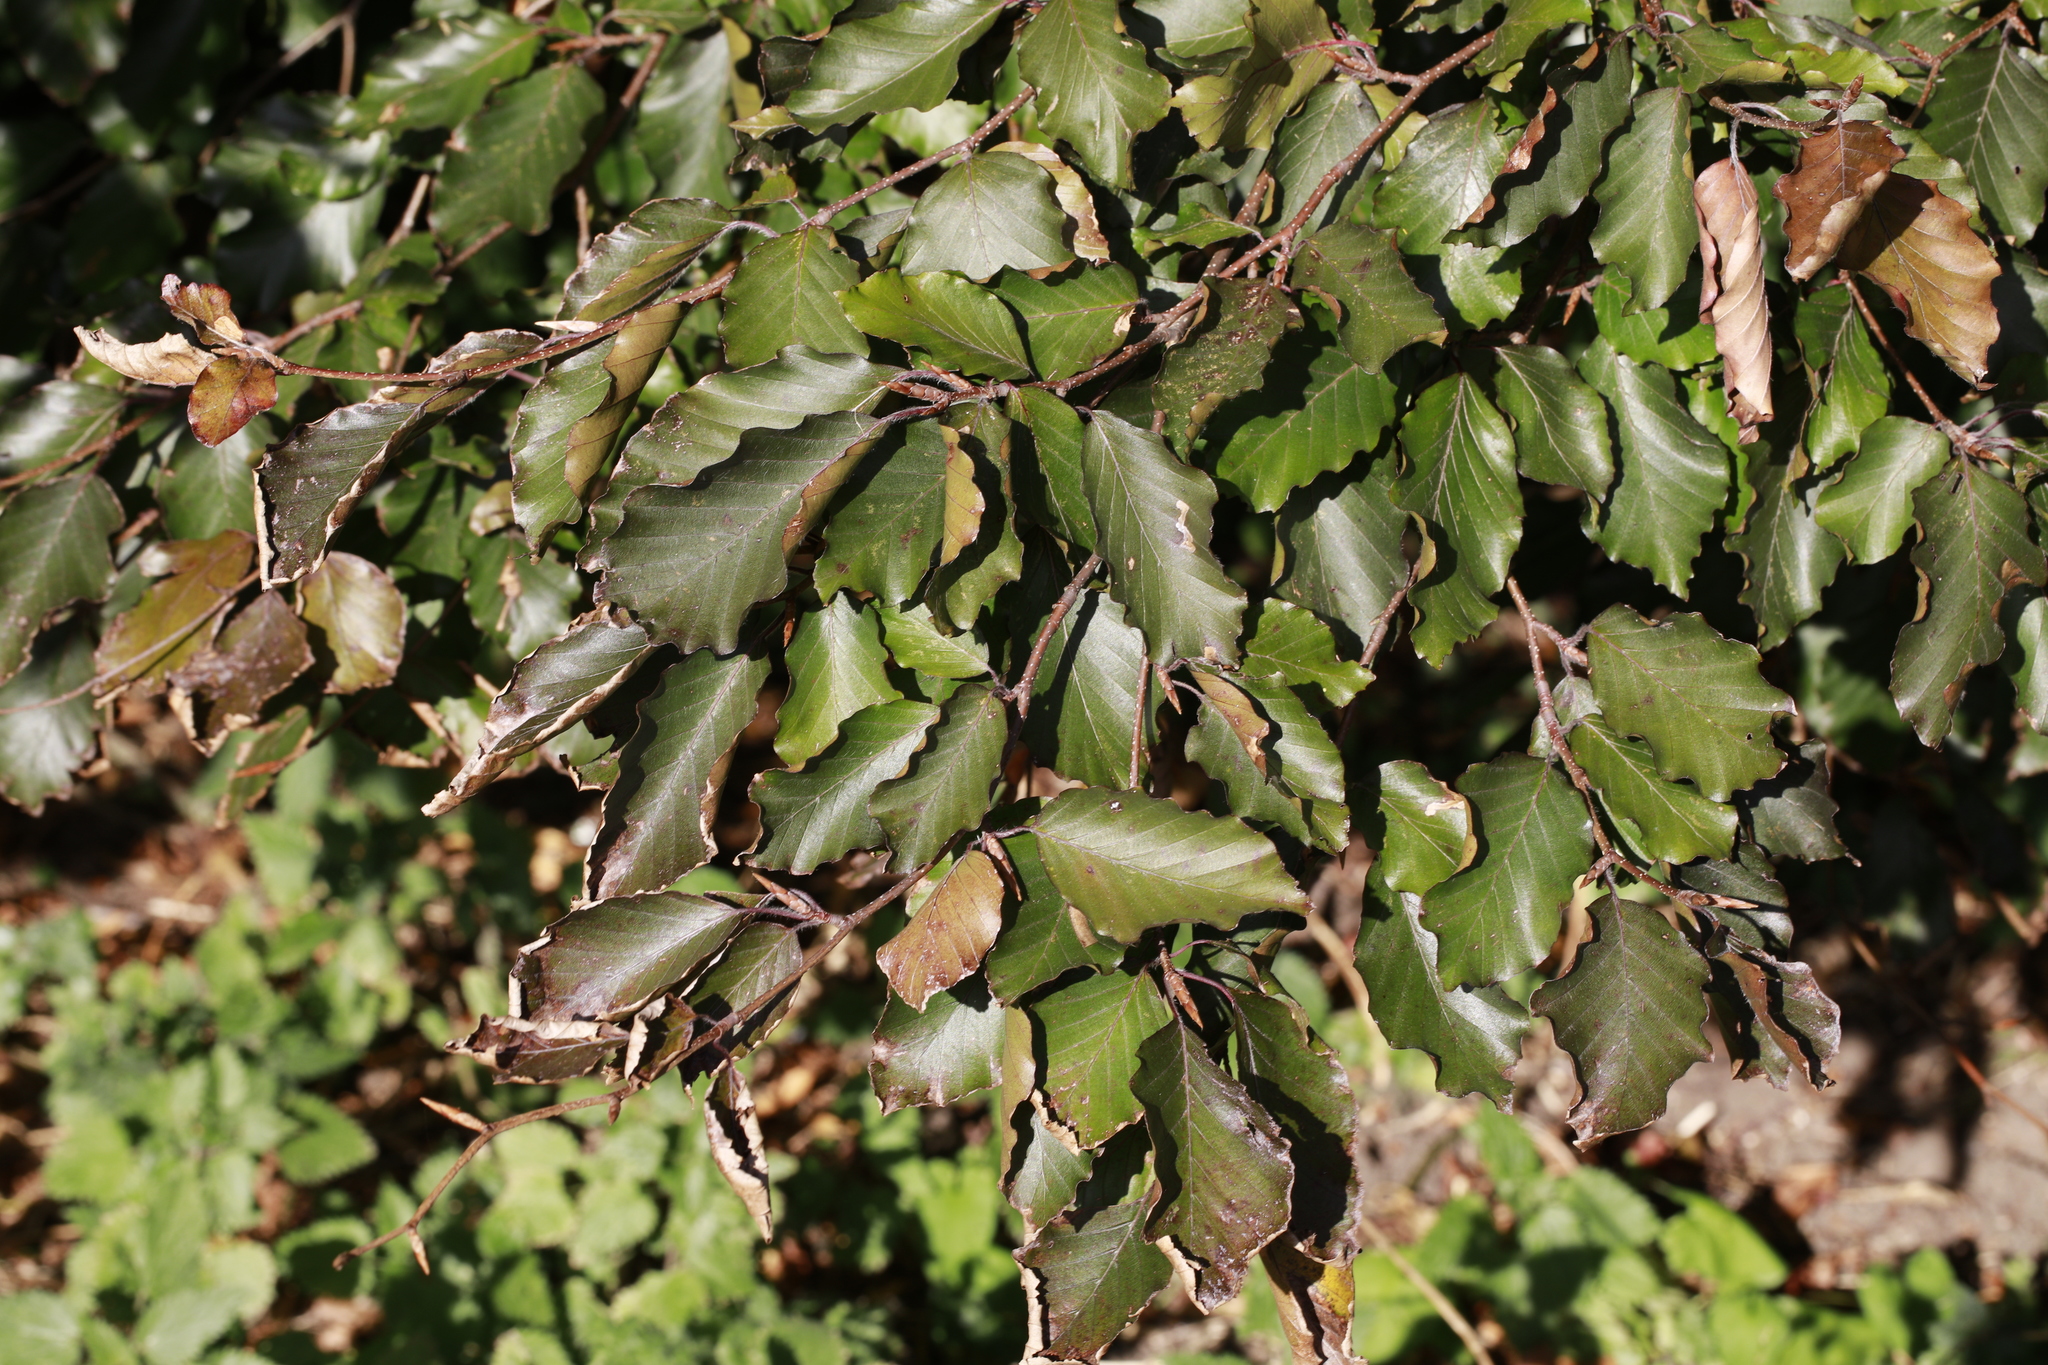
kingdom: Plantae
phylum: Tracheophyta
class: Magnoliopsida
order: Fagales
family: Fagaceae
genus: Fagus
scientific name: Fagus sylvatica
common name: Beech
